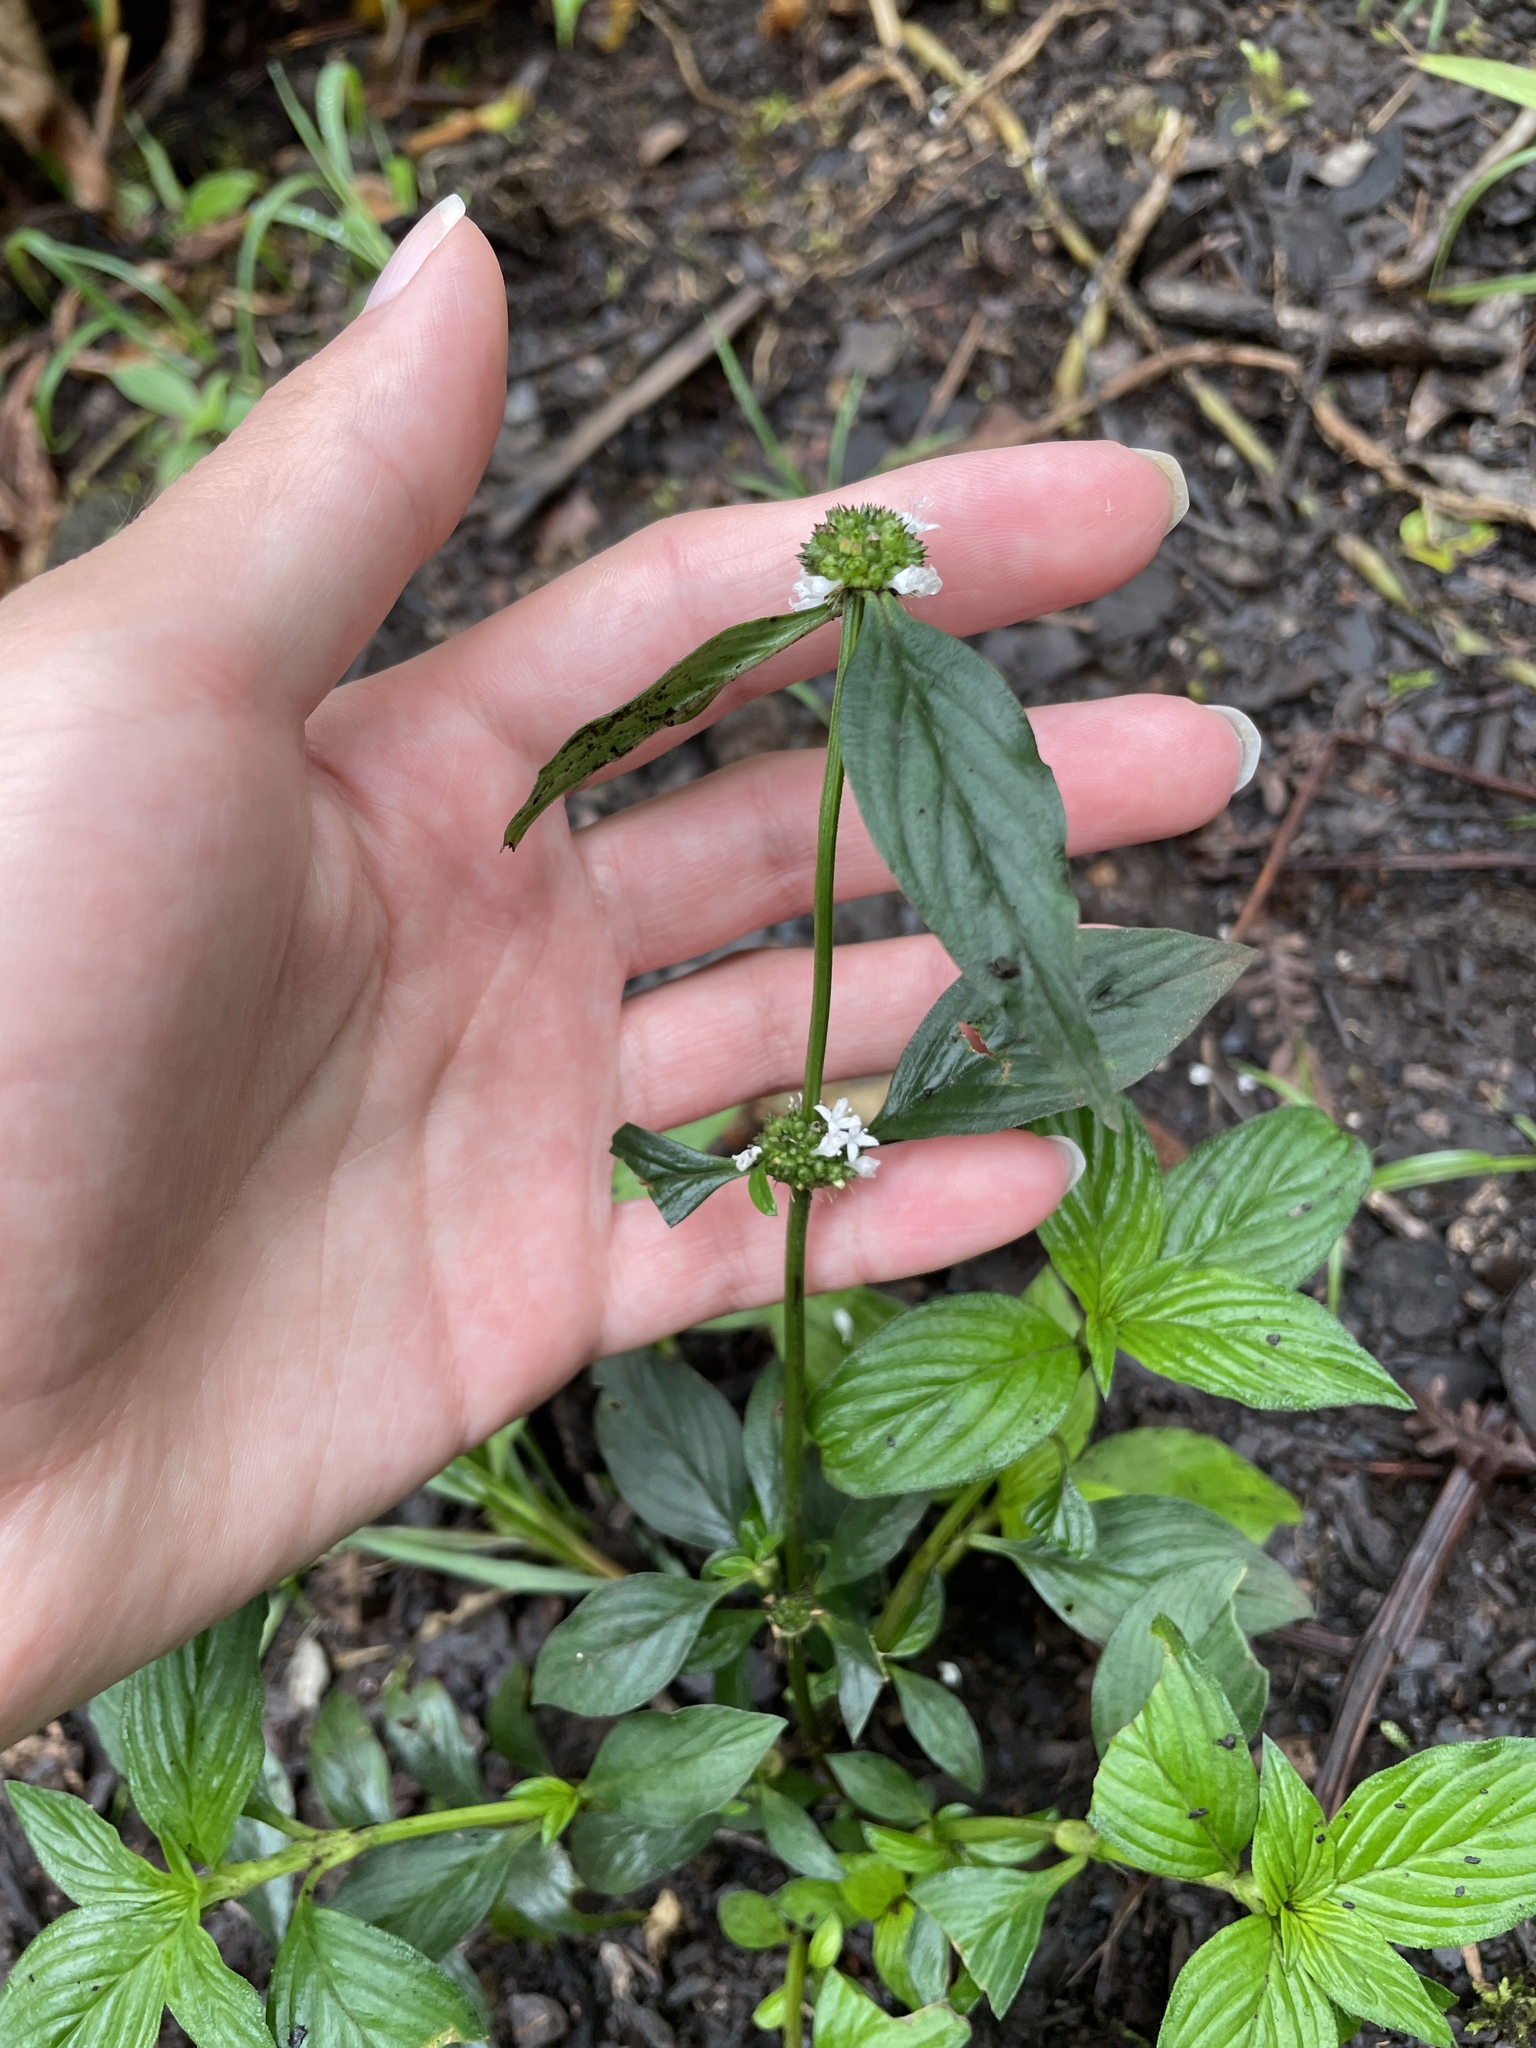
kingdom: Plantae
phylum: Tracheophyta
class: Magnoliopsida
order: Gentianales
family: Rubiaceae
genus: Spermacoce
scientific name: Spermacoce remota
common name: Woodland false buttonweed
